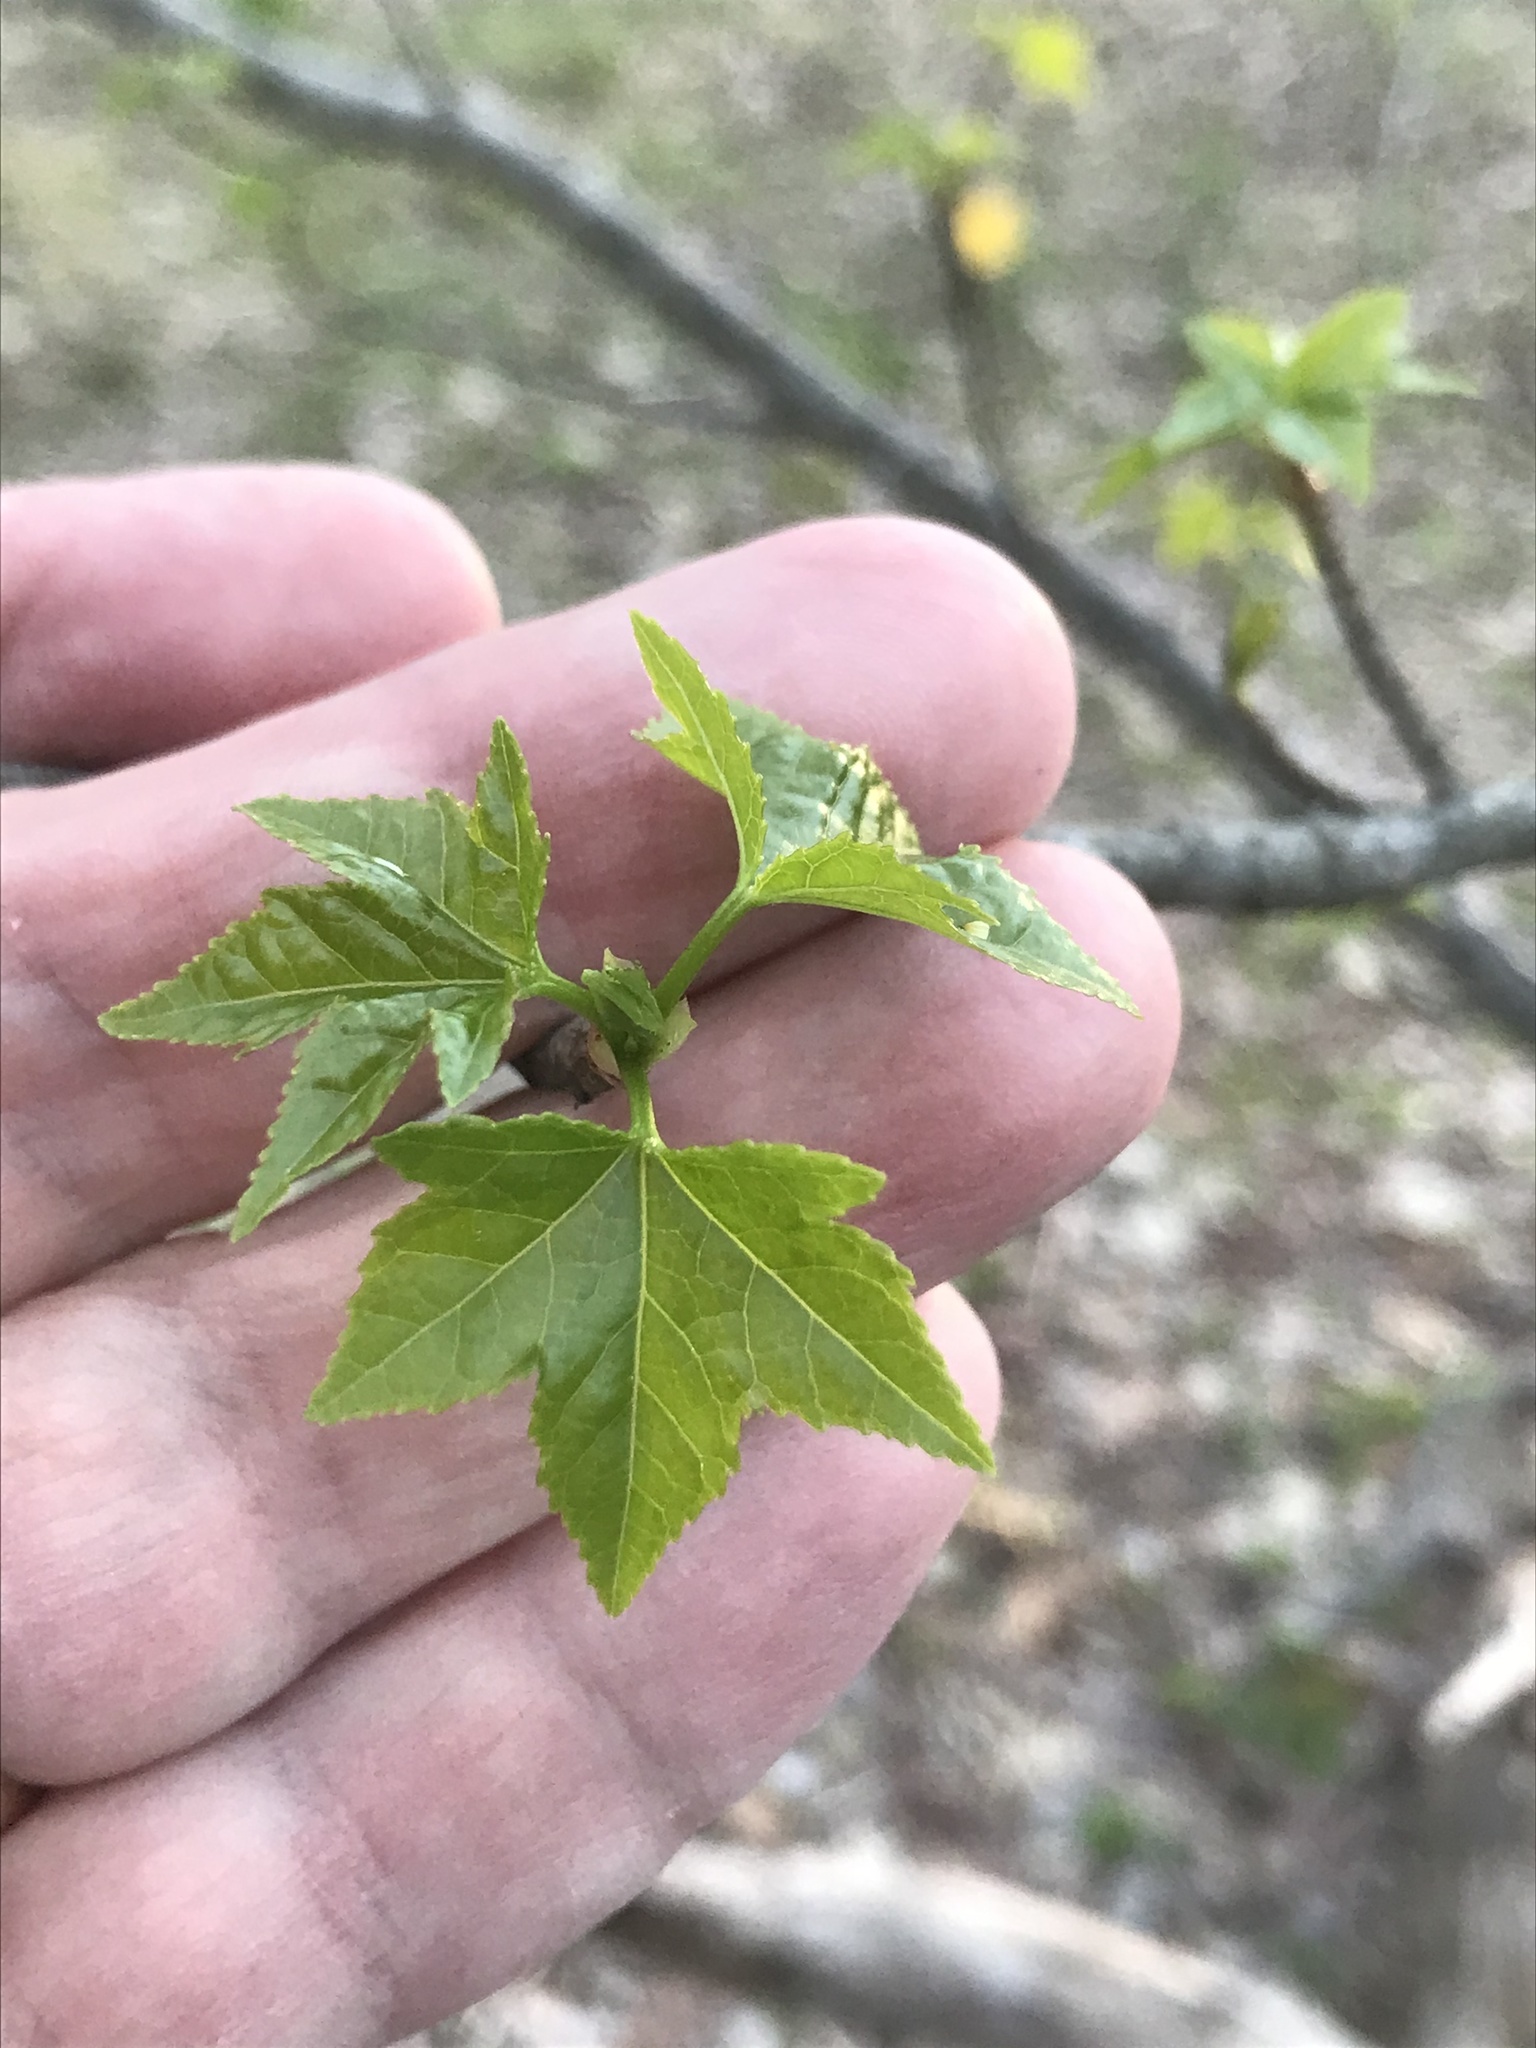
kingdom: Plantae
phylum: Tracheophyta
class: Magnoliopsida
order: Saxifragales
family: Altingiaceae
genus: Liquidambar
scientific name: Liquidambar styraciflua
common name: Sweet gum
